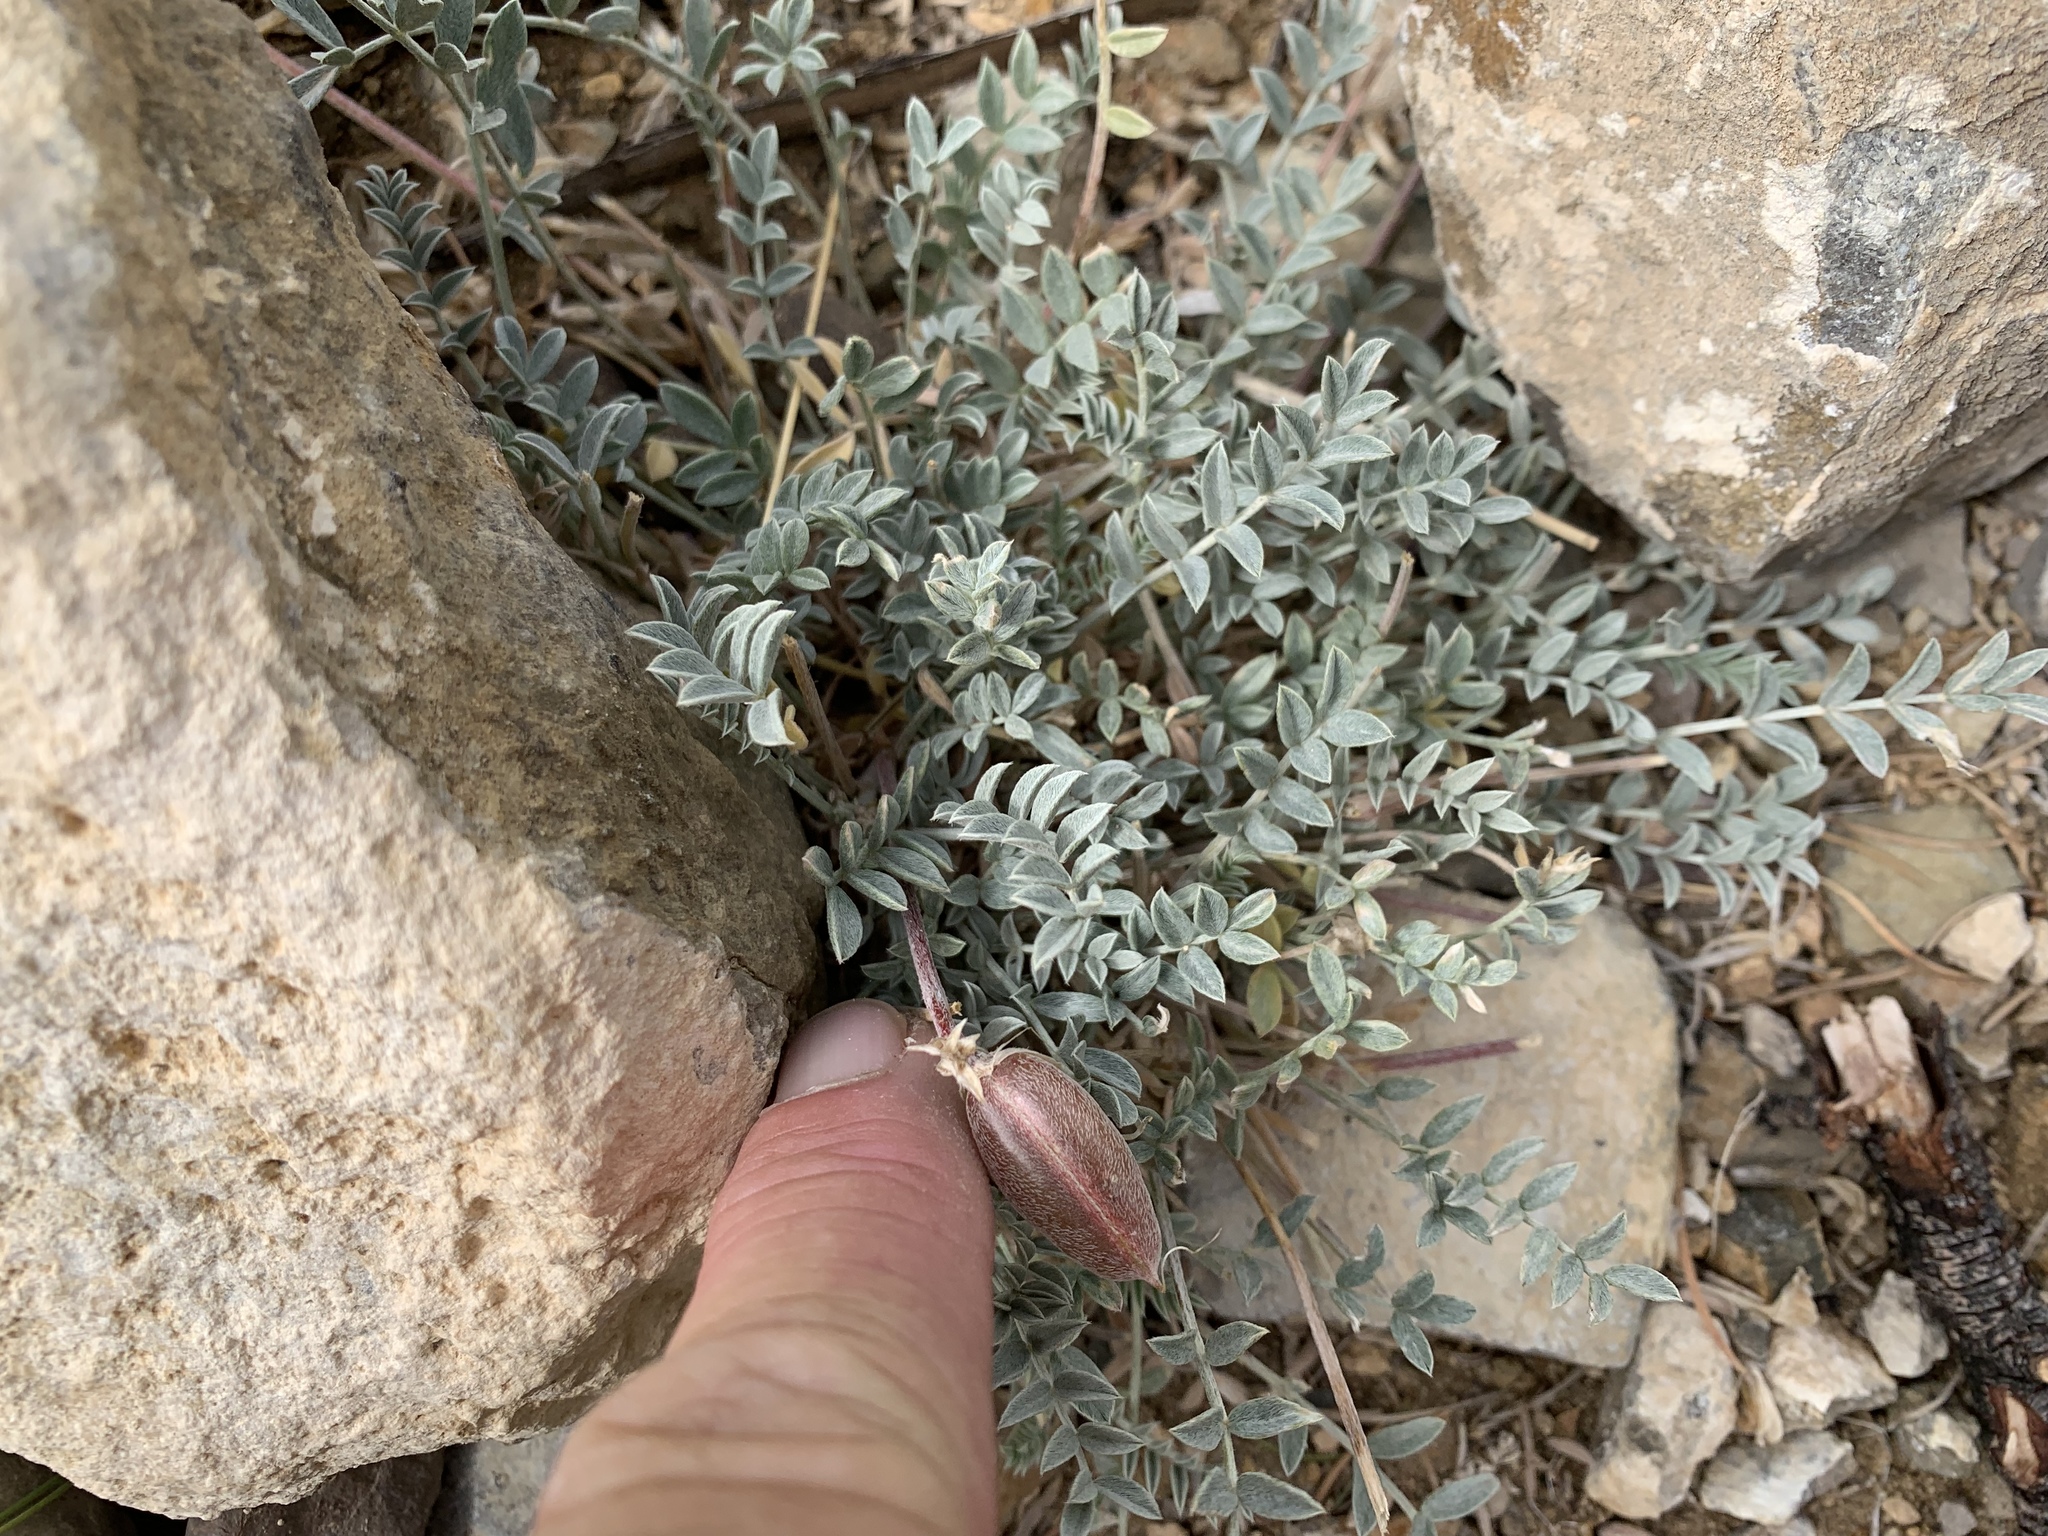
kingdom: Plantae
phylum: Tracheophyta
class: Magnoliopsida
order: Fabales
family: Fabaceae
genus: Astragalus
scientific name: Astragalus missouriensis
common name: Missouri milk-vetch
